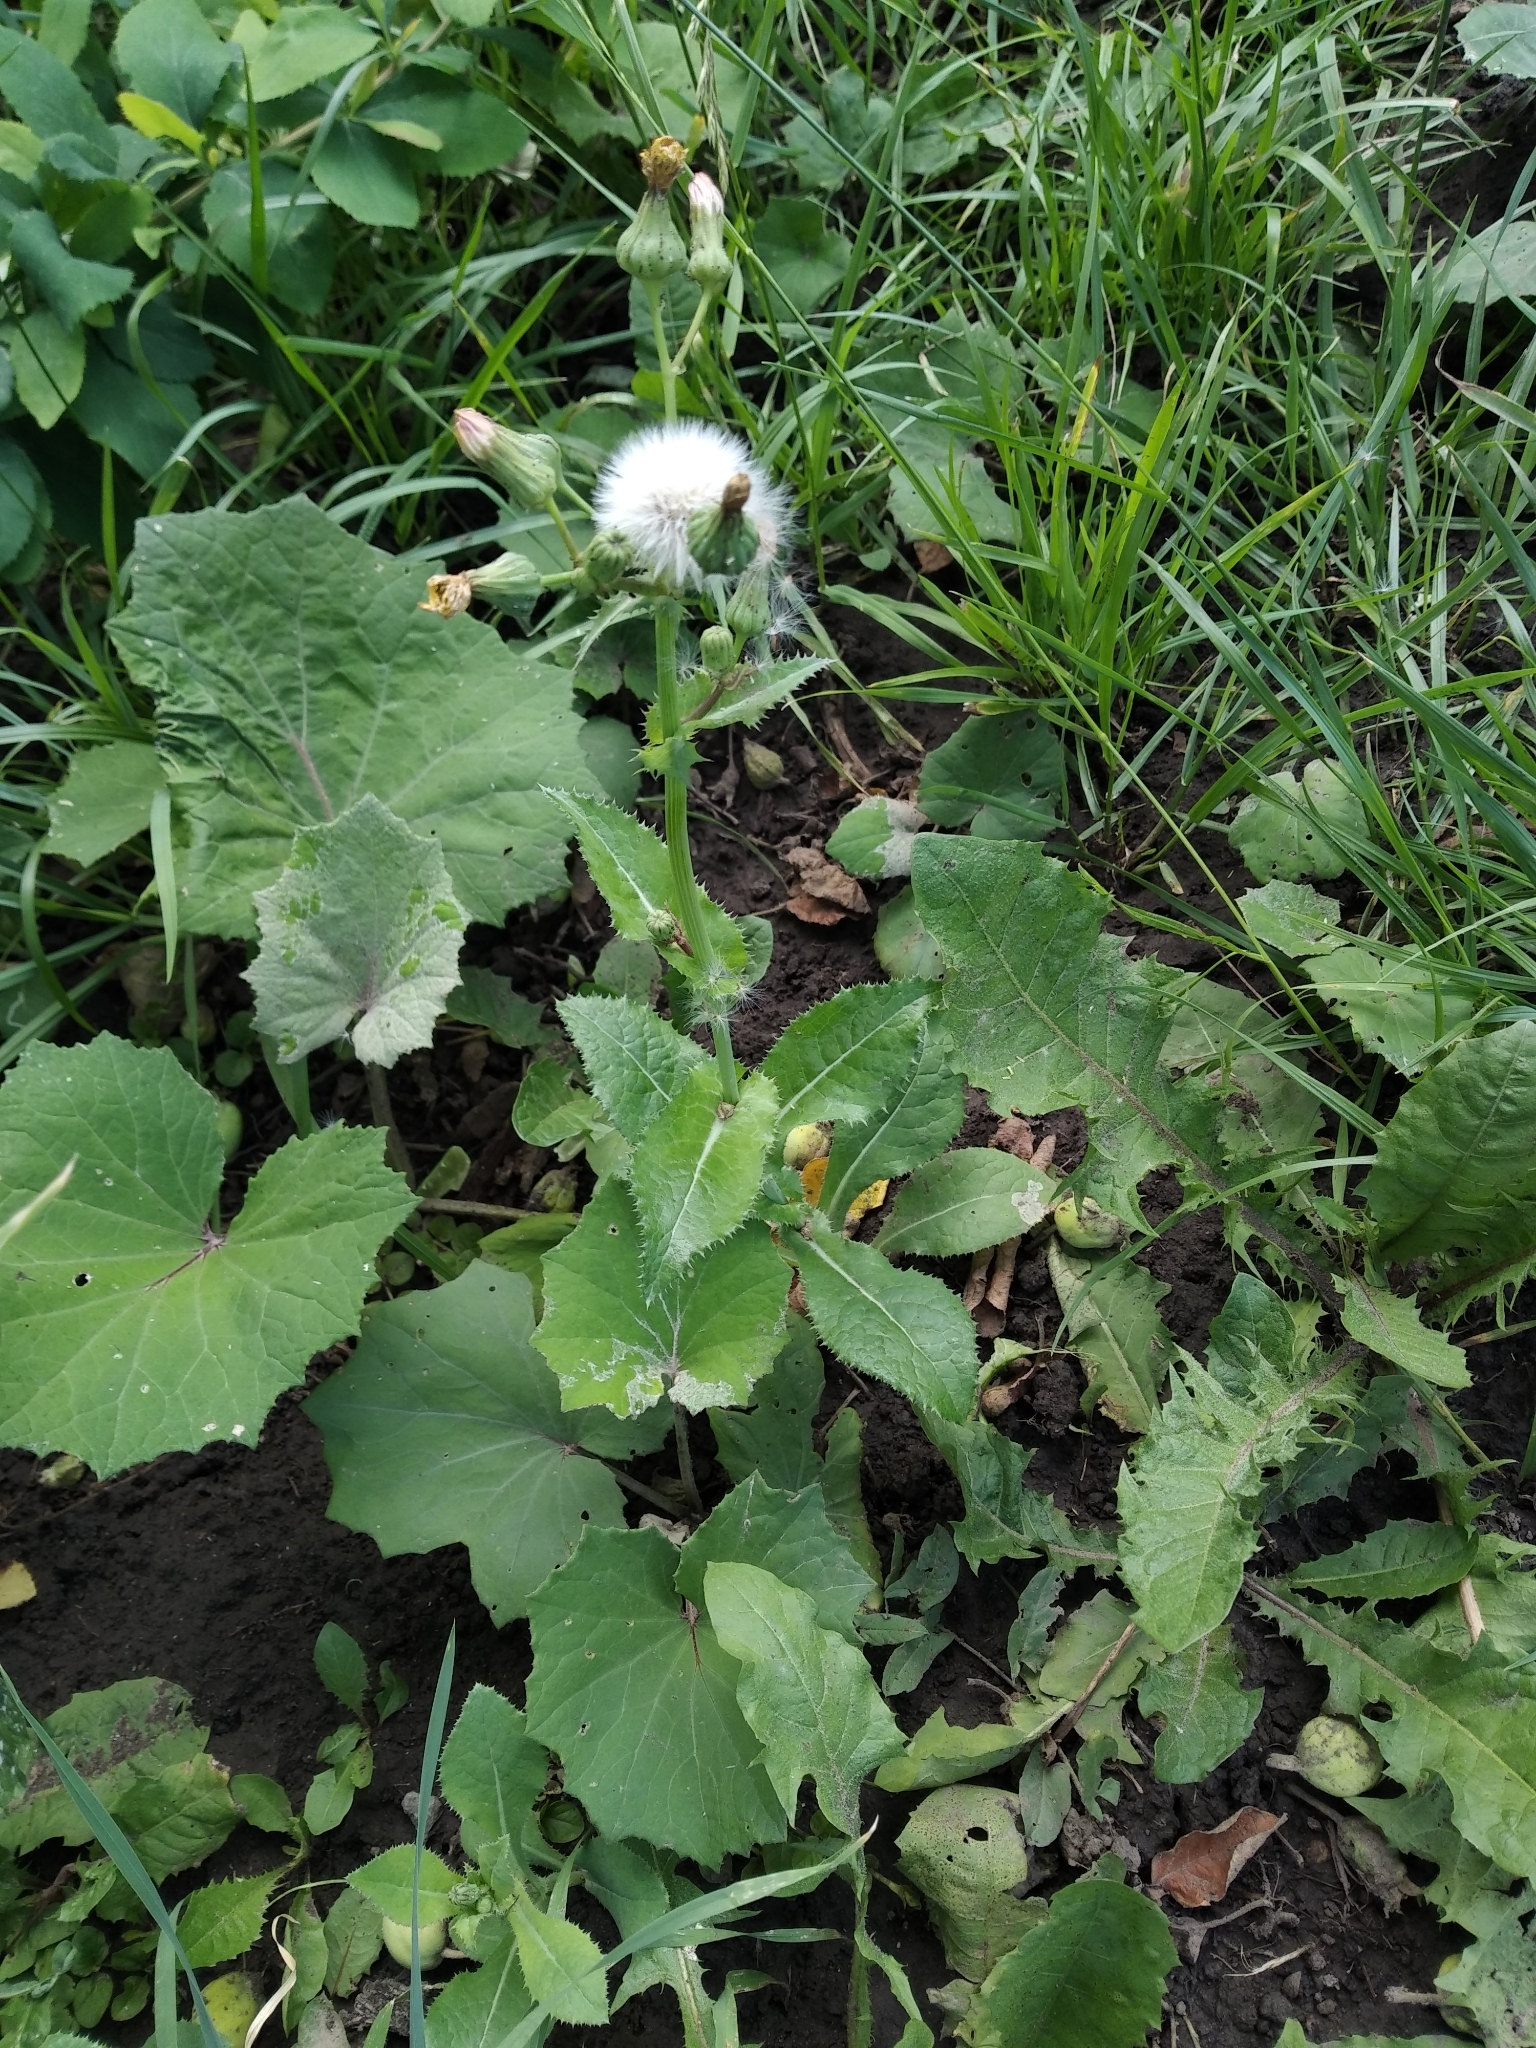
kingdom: Plantae
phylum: Tracheophyta
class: Magnoliopsida
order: Asterales
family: Asteraceae
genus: Sonchus
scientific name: Sonchus asper
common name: Prickly sow-thistle
